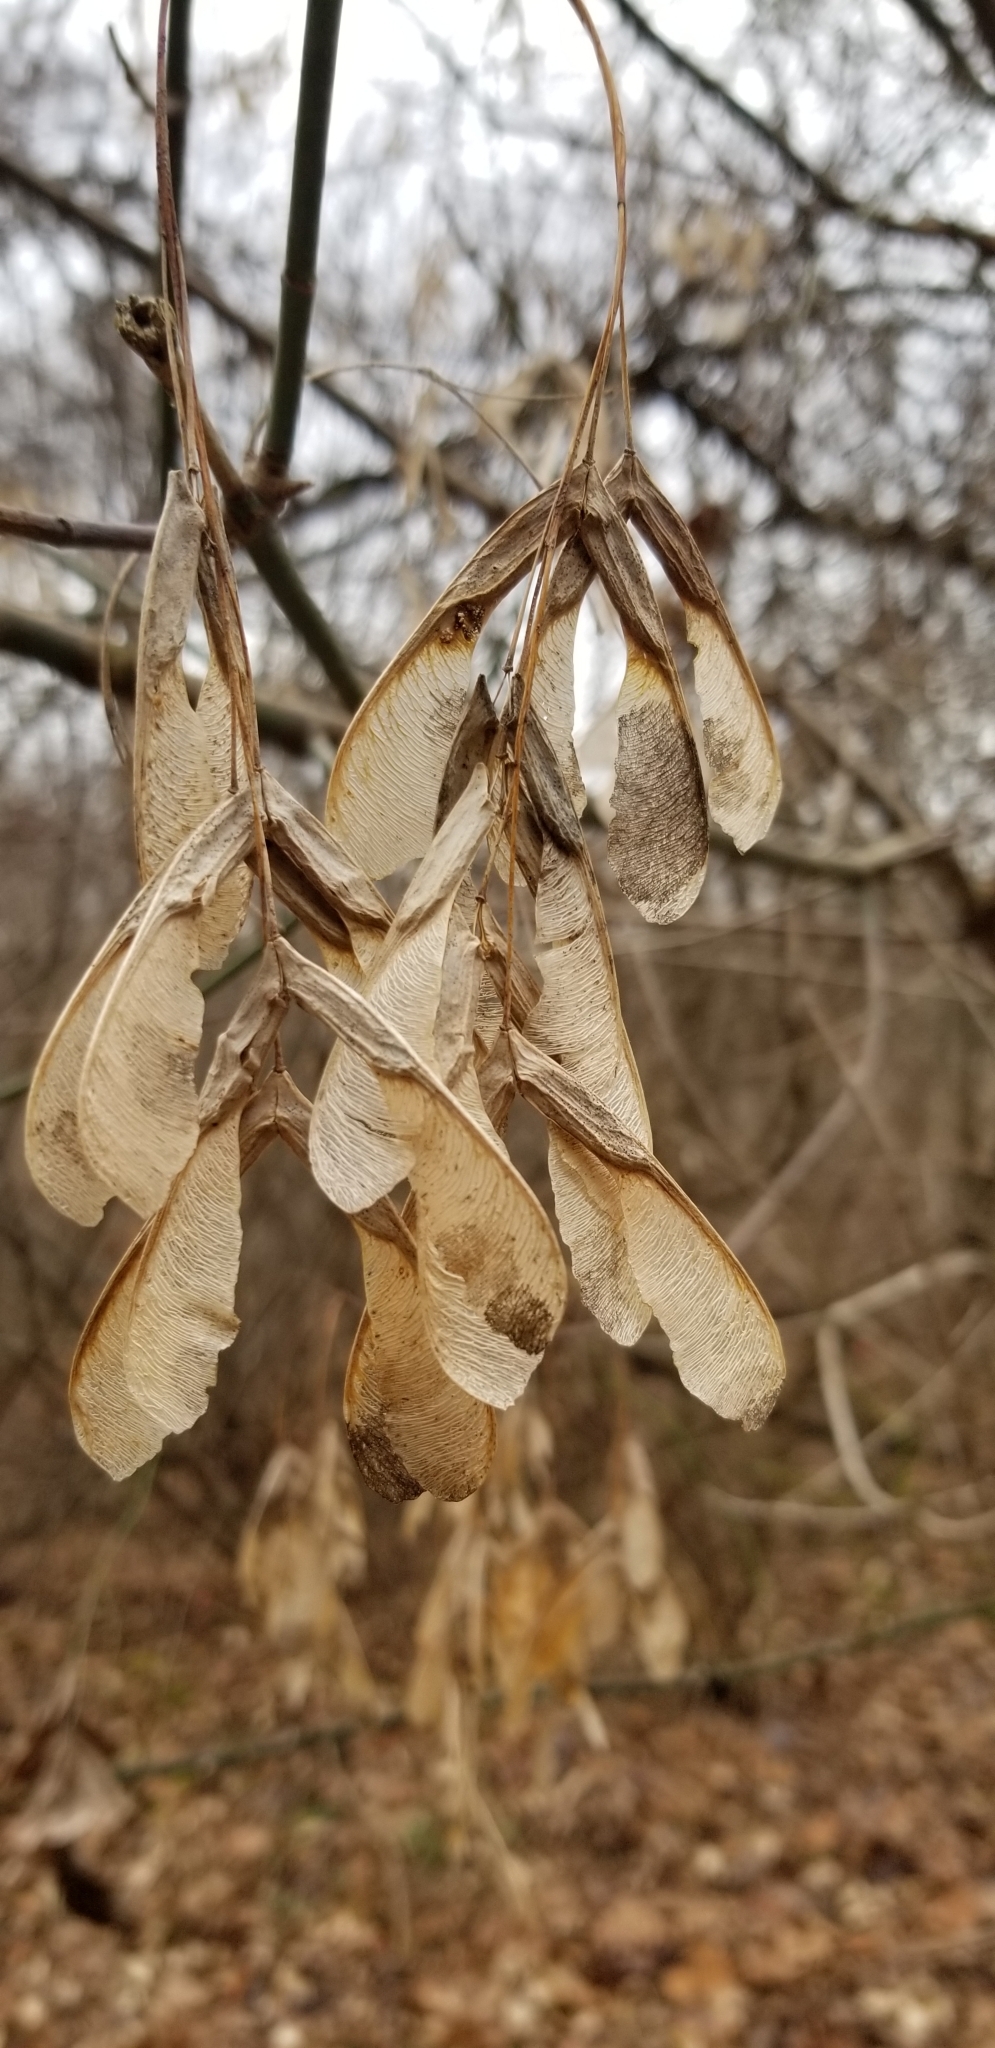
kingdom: Plantae
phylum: Tracheophyta
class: Magnoliopsida
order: Sapindales
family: Sapindaceae
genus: Acer
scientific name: Acer negundo
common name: Ashleaf maple
